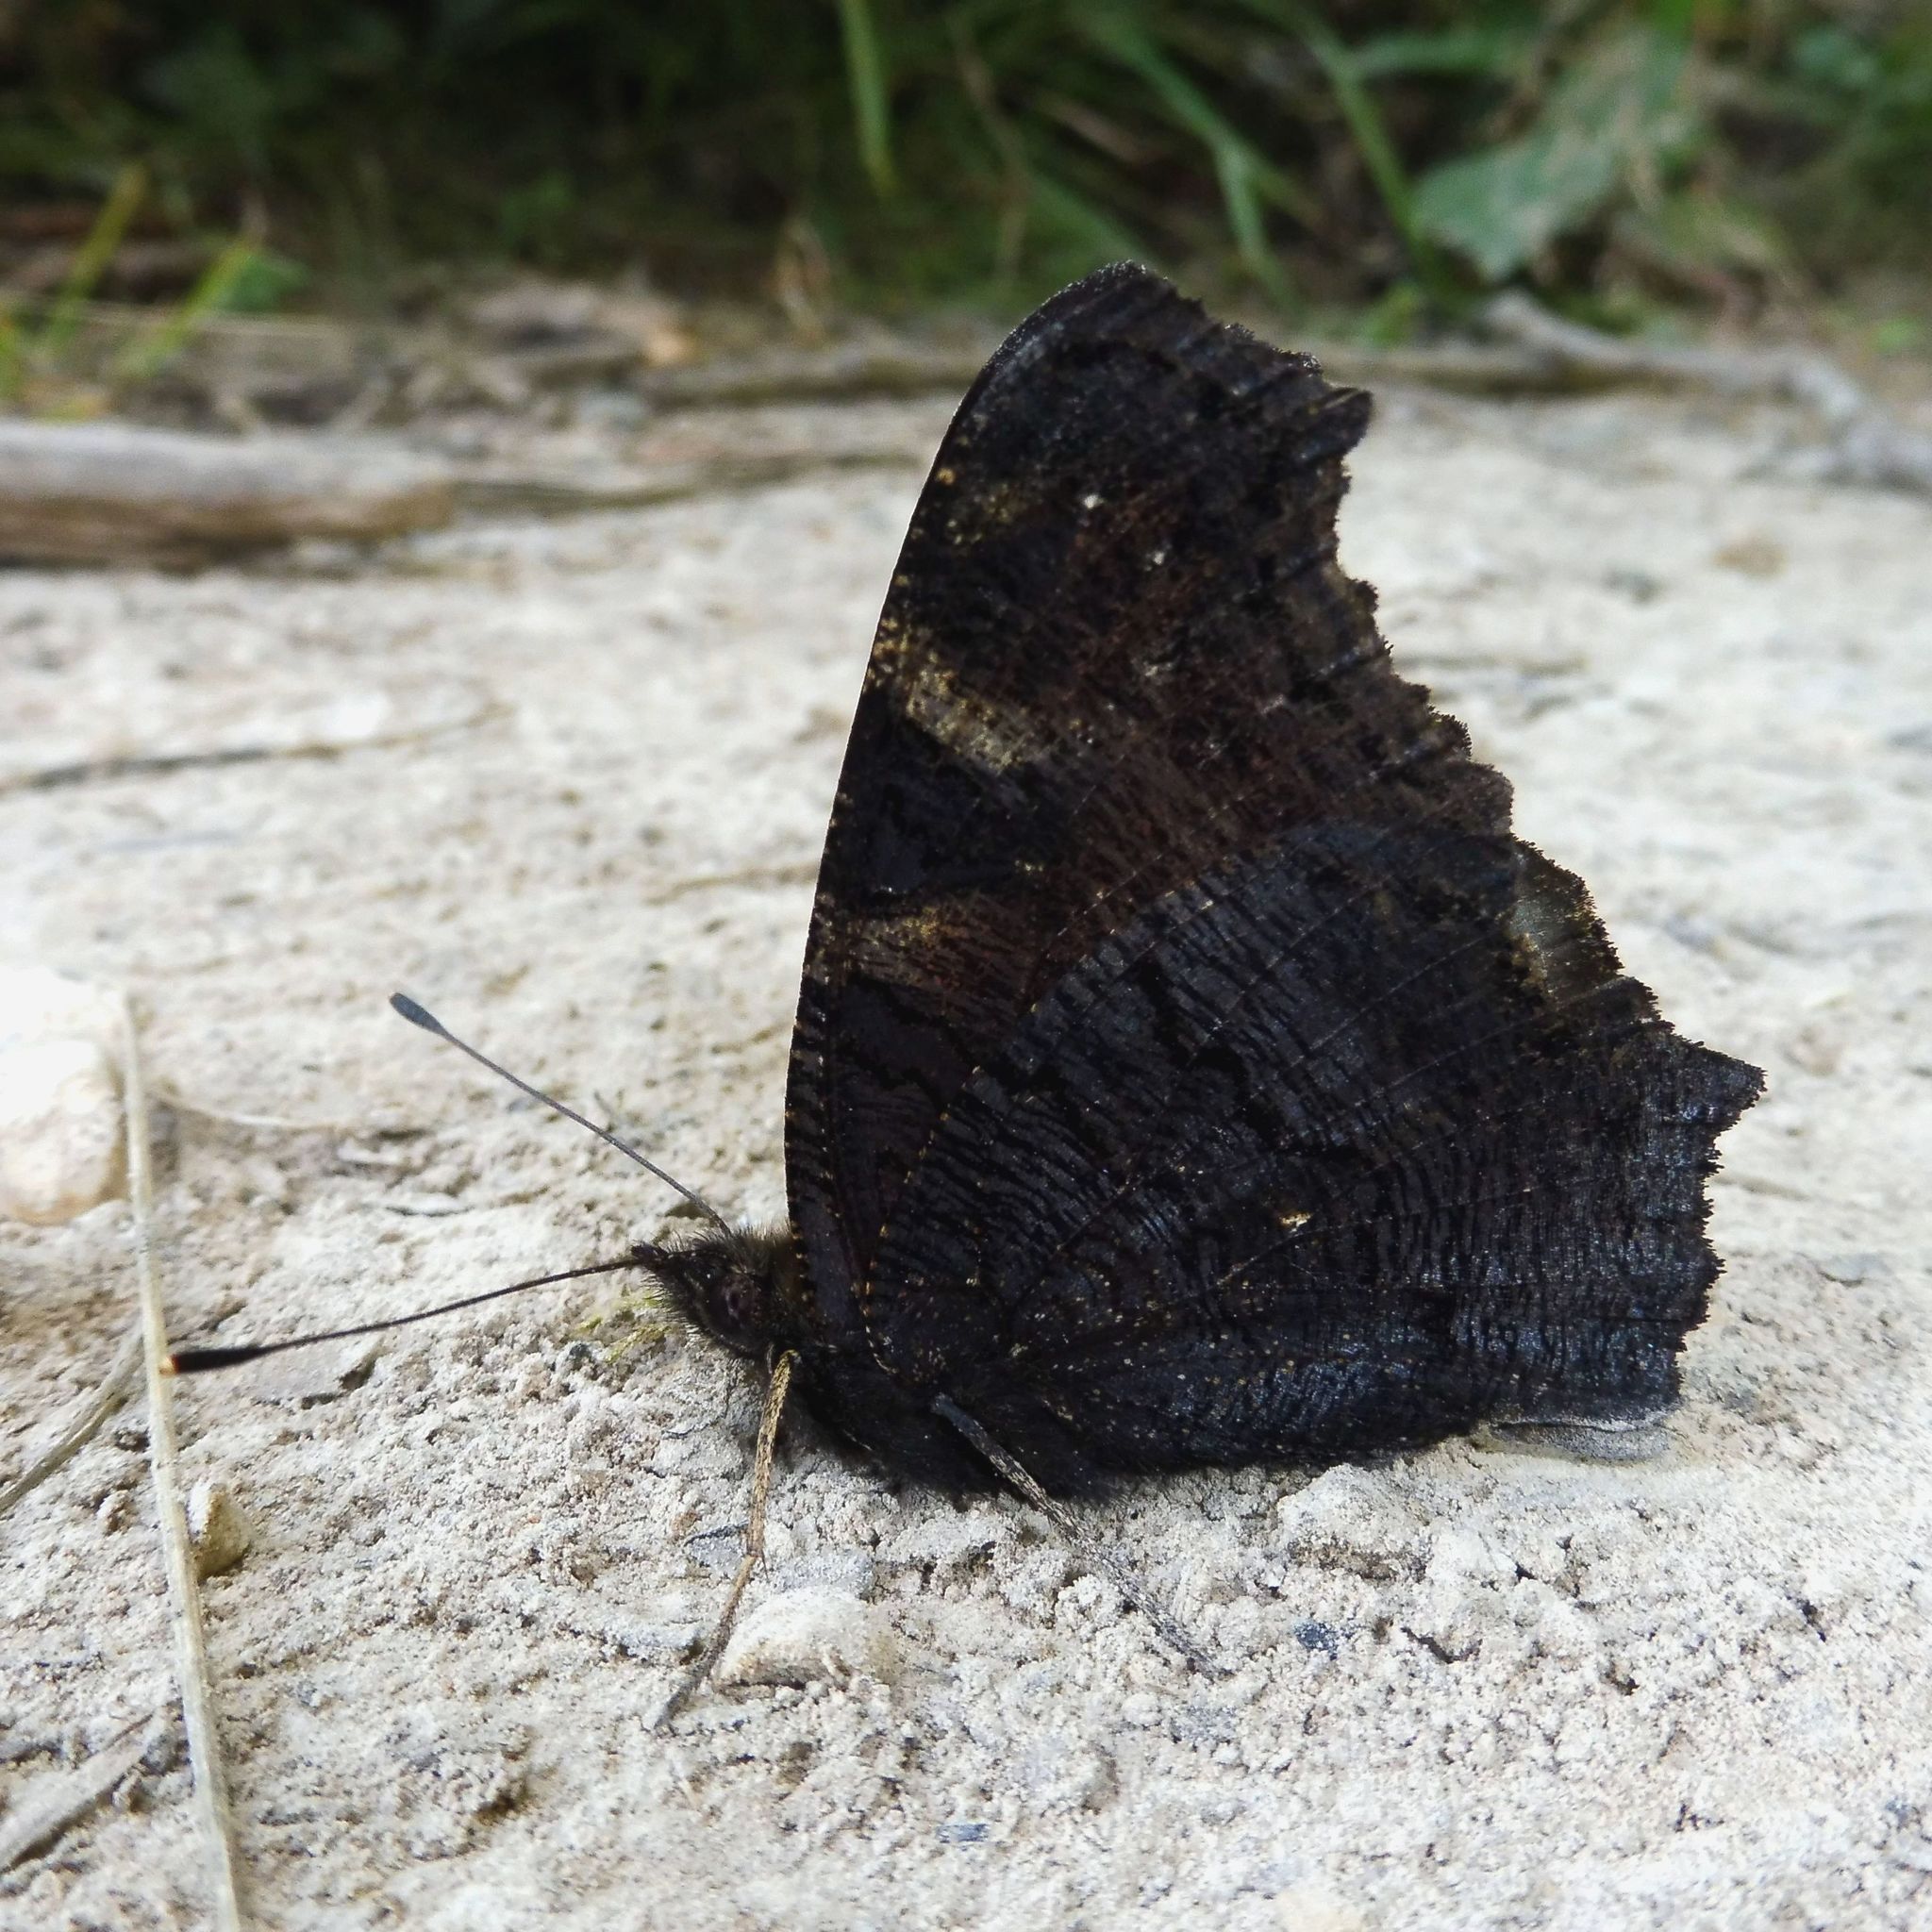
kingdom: Animalia
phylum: Arthropoda
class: Insecta
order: Lepidoptera
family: Nymphalidae
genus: Aglais
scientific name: Aglais io
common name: Peacock
